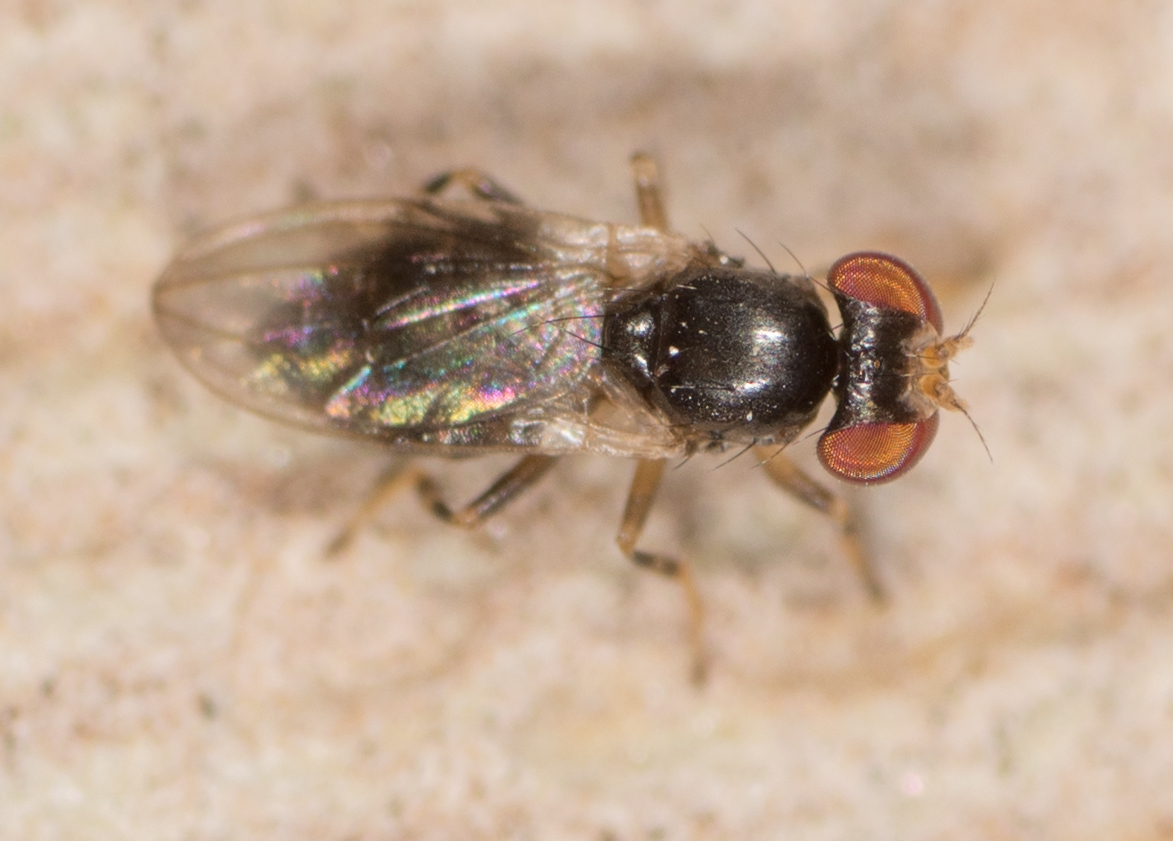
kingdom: Animalia
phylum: Arthropoda
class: Insecta
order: Diptera
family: Periscelididae
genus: Periscelis
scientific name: Periscelis occidentalis
